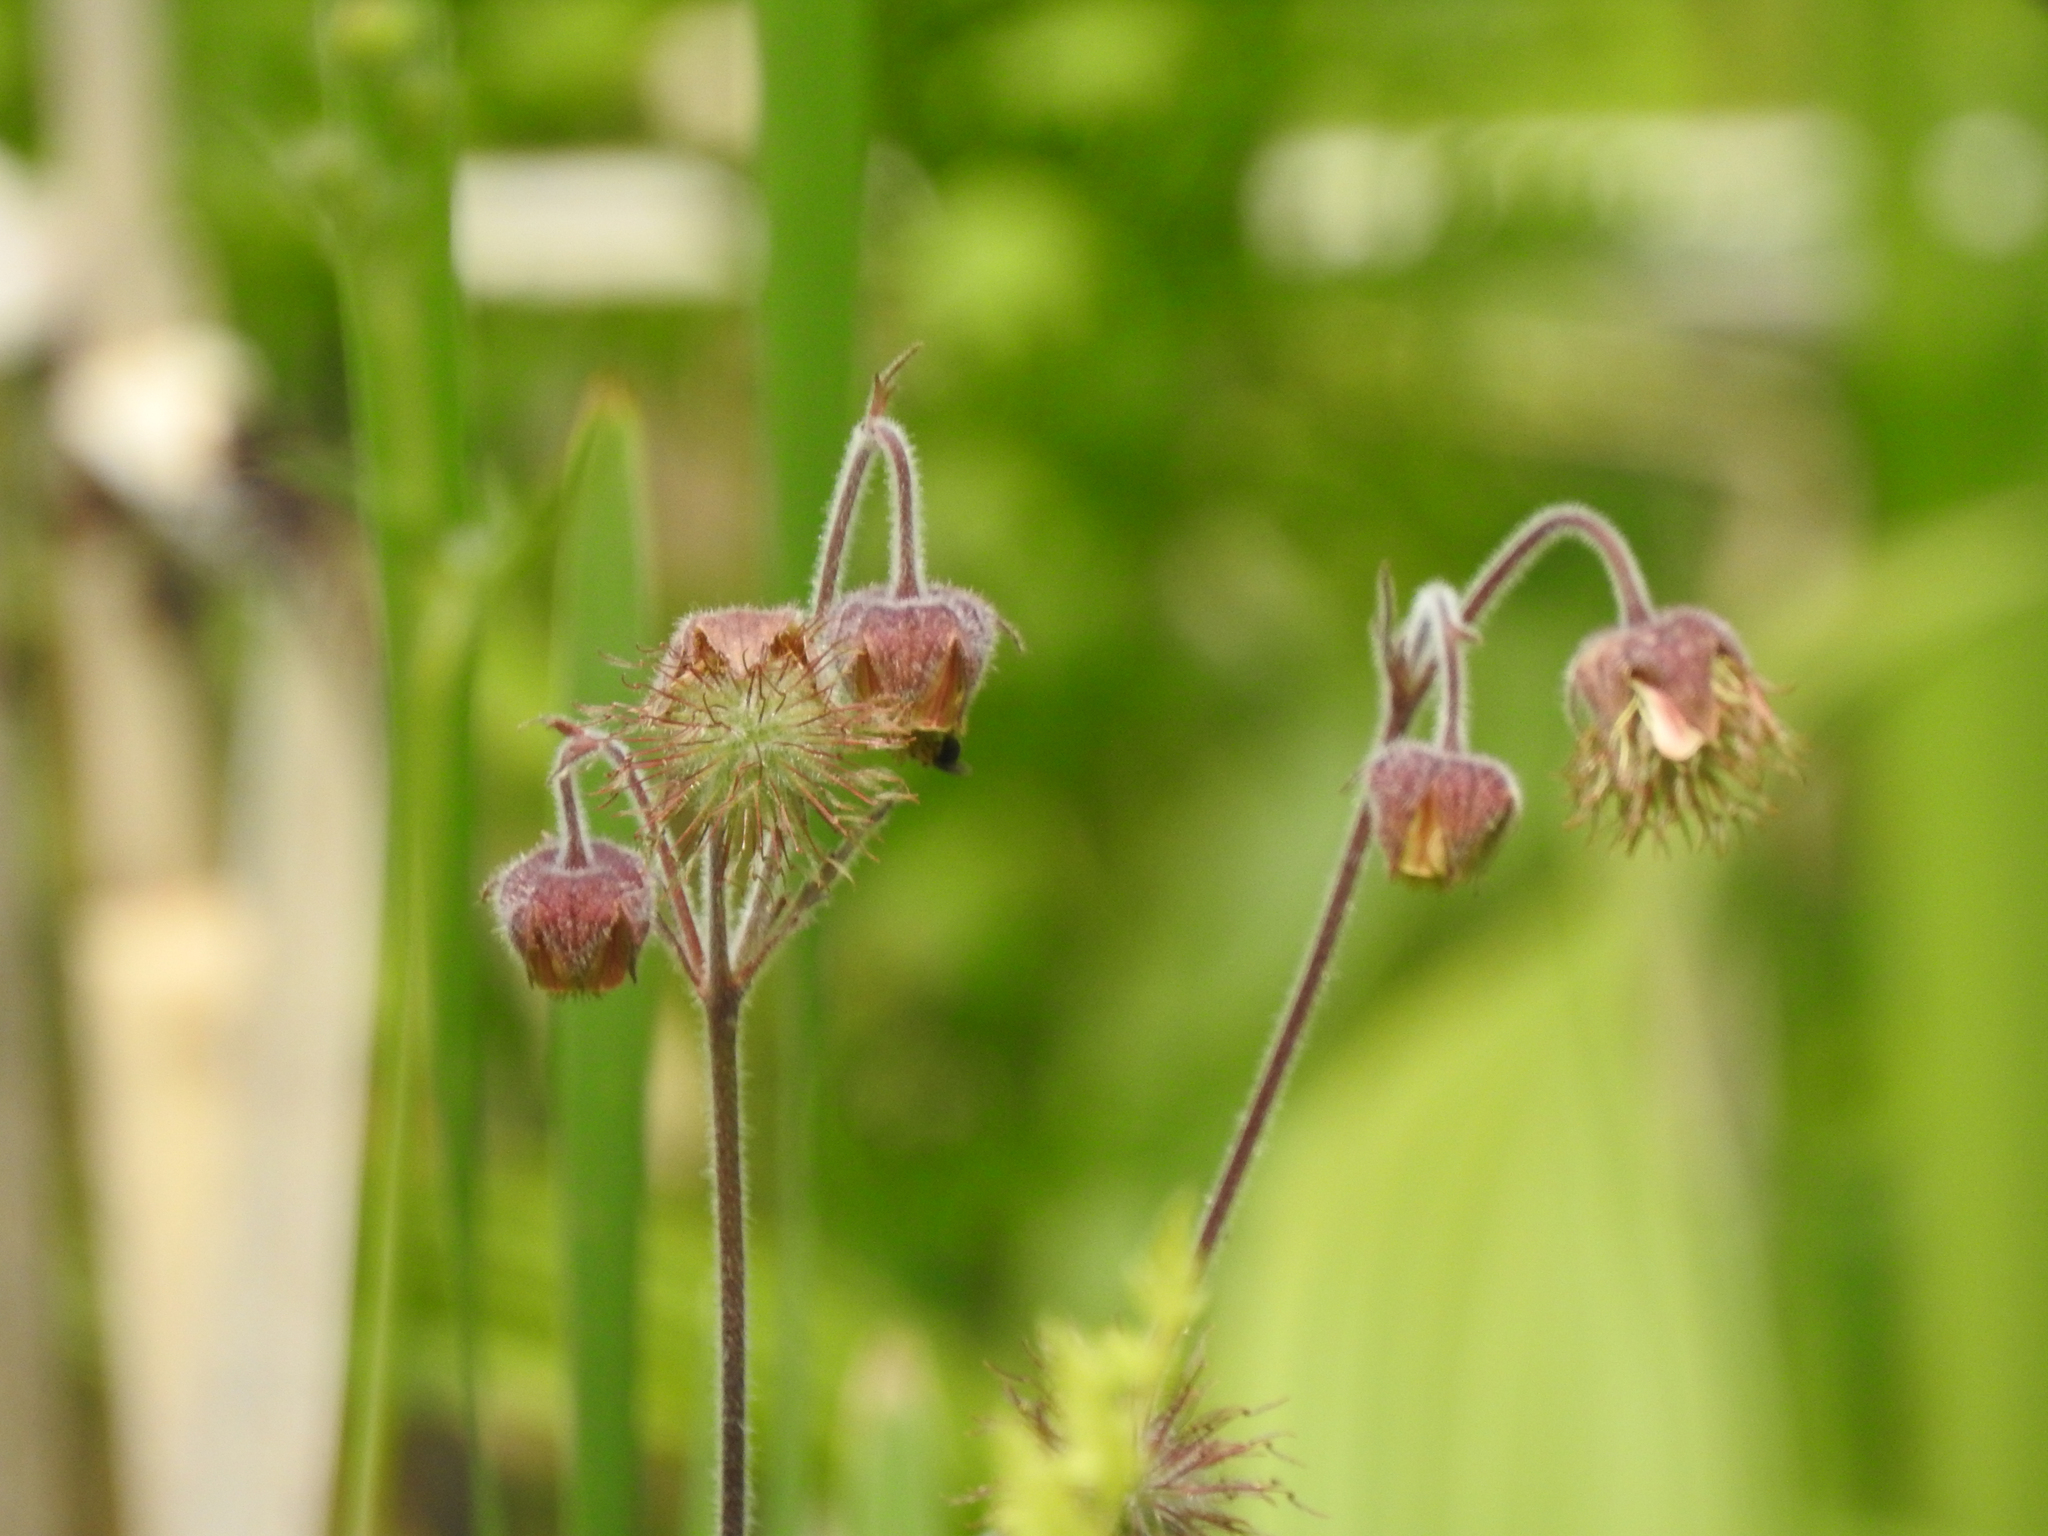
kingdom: Plantae
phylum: Tracheophyta
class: Magnoliopsida
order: Rosales
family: Rosaceae
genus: Geum
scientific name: Geum rivale
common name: Water avens
